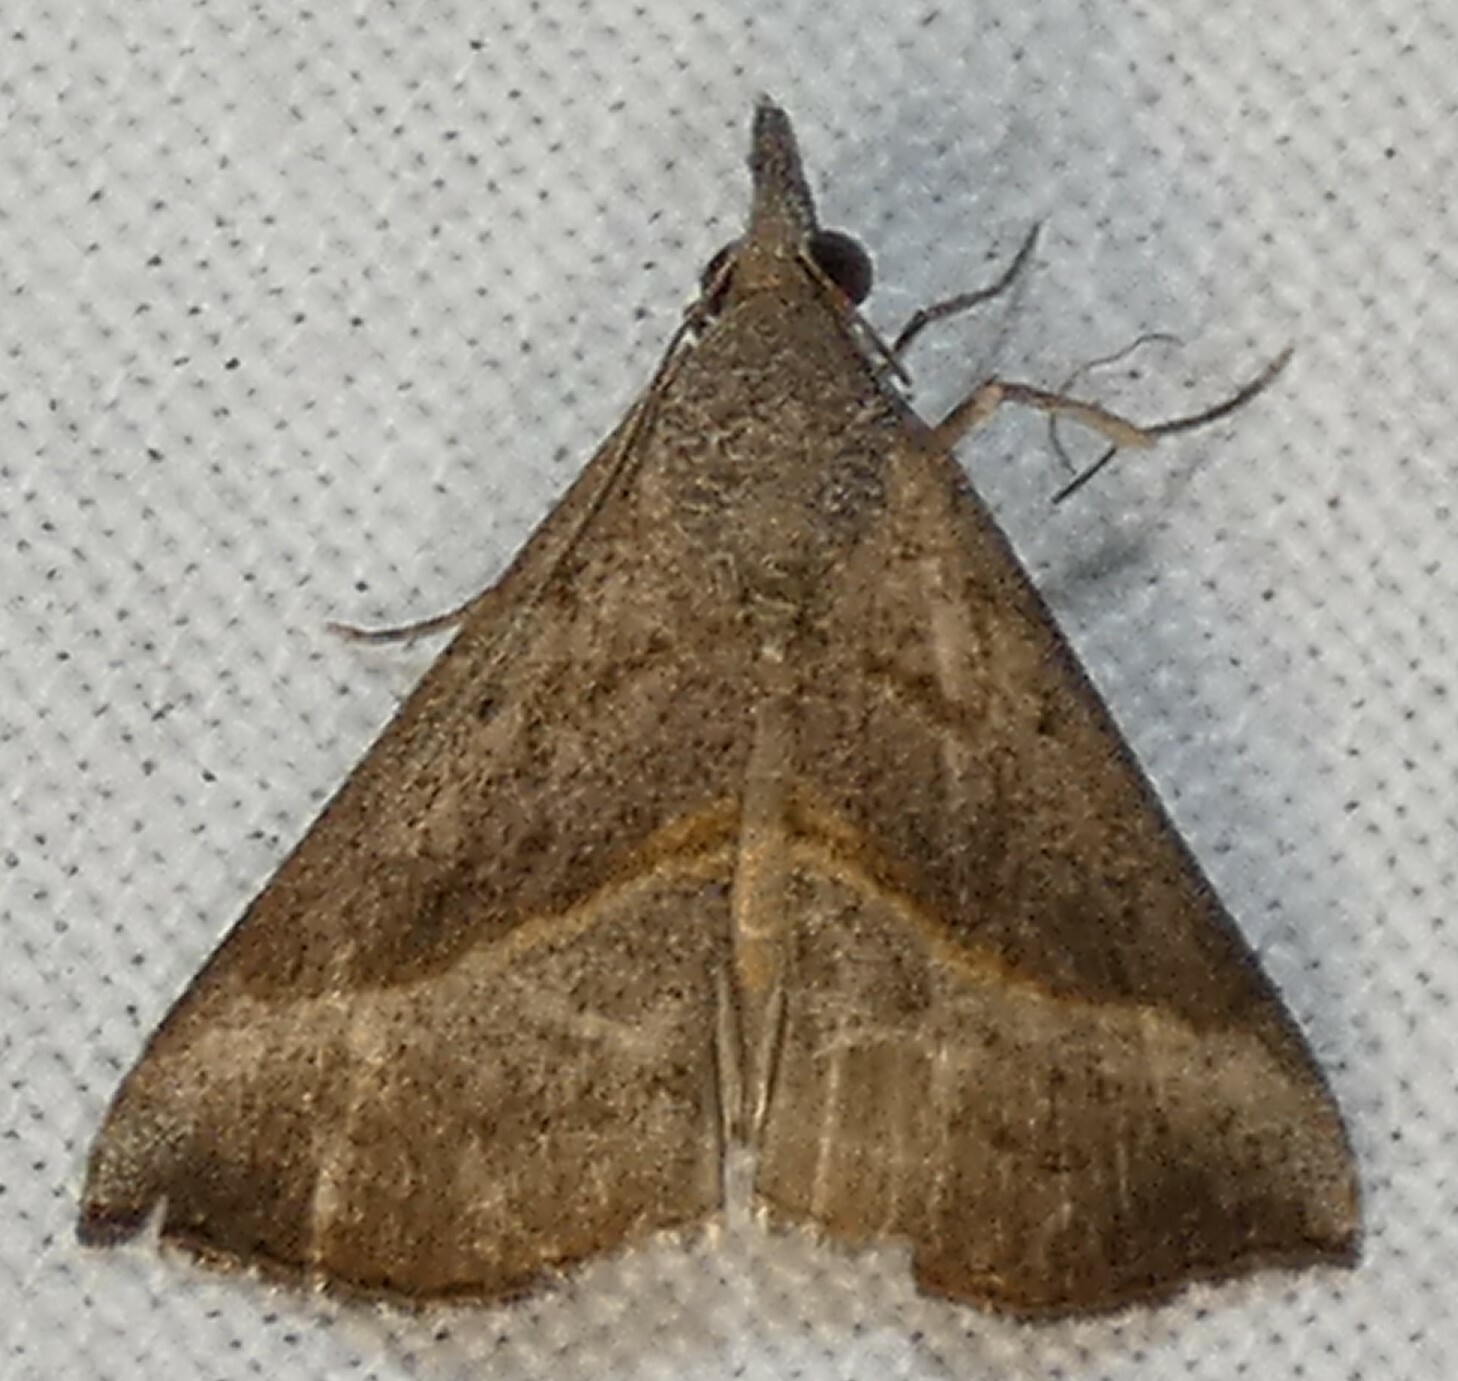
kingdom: Animalia
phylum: Arthropoda
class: Insecta
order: Lepidoptera
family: Erebidae
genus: Hypena
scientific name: Hypena degesalis
